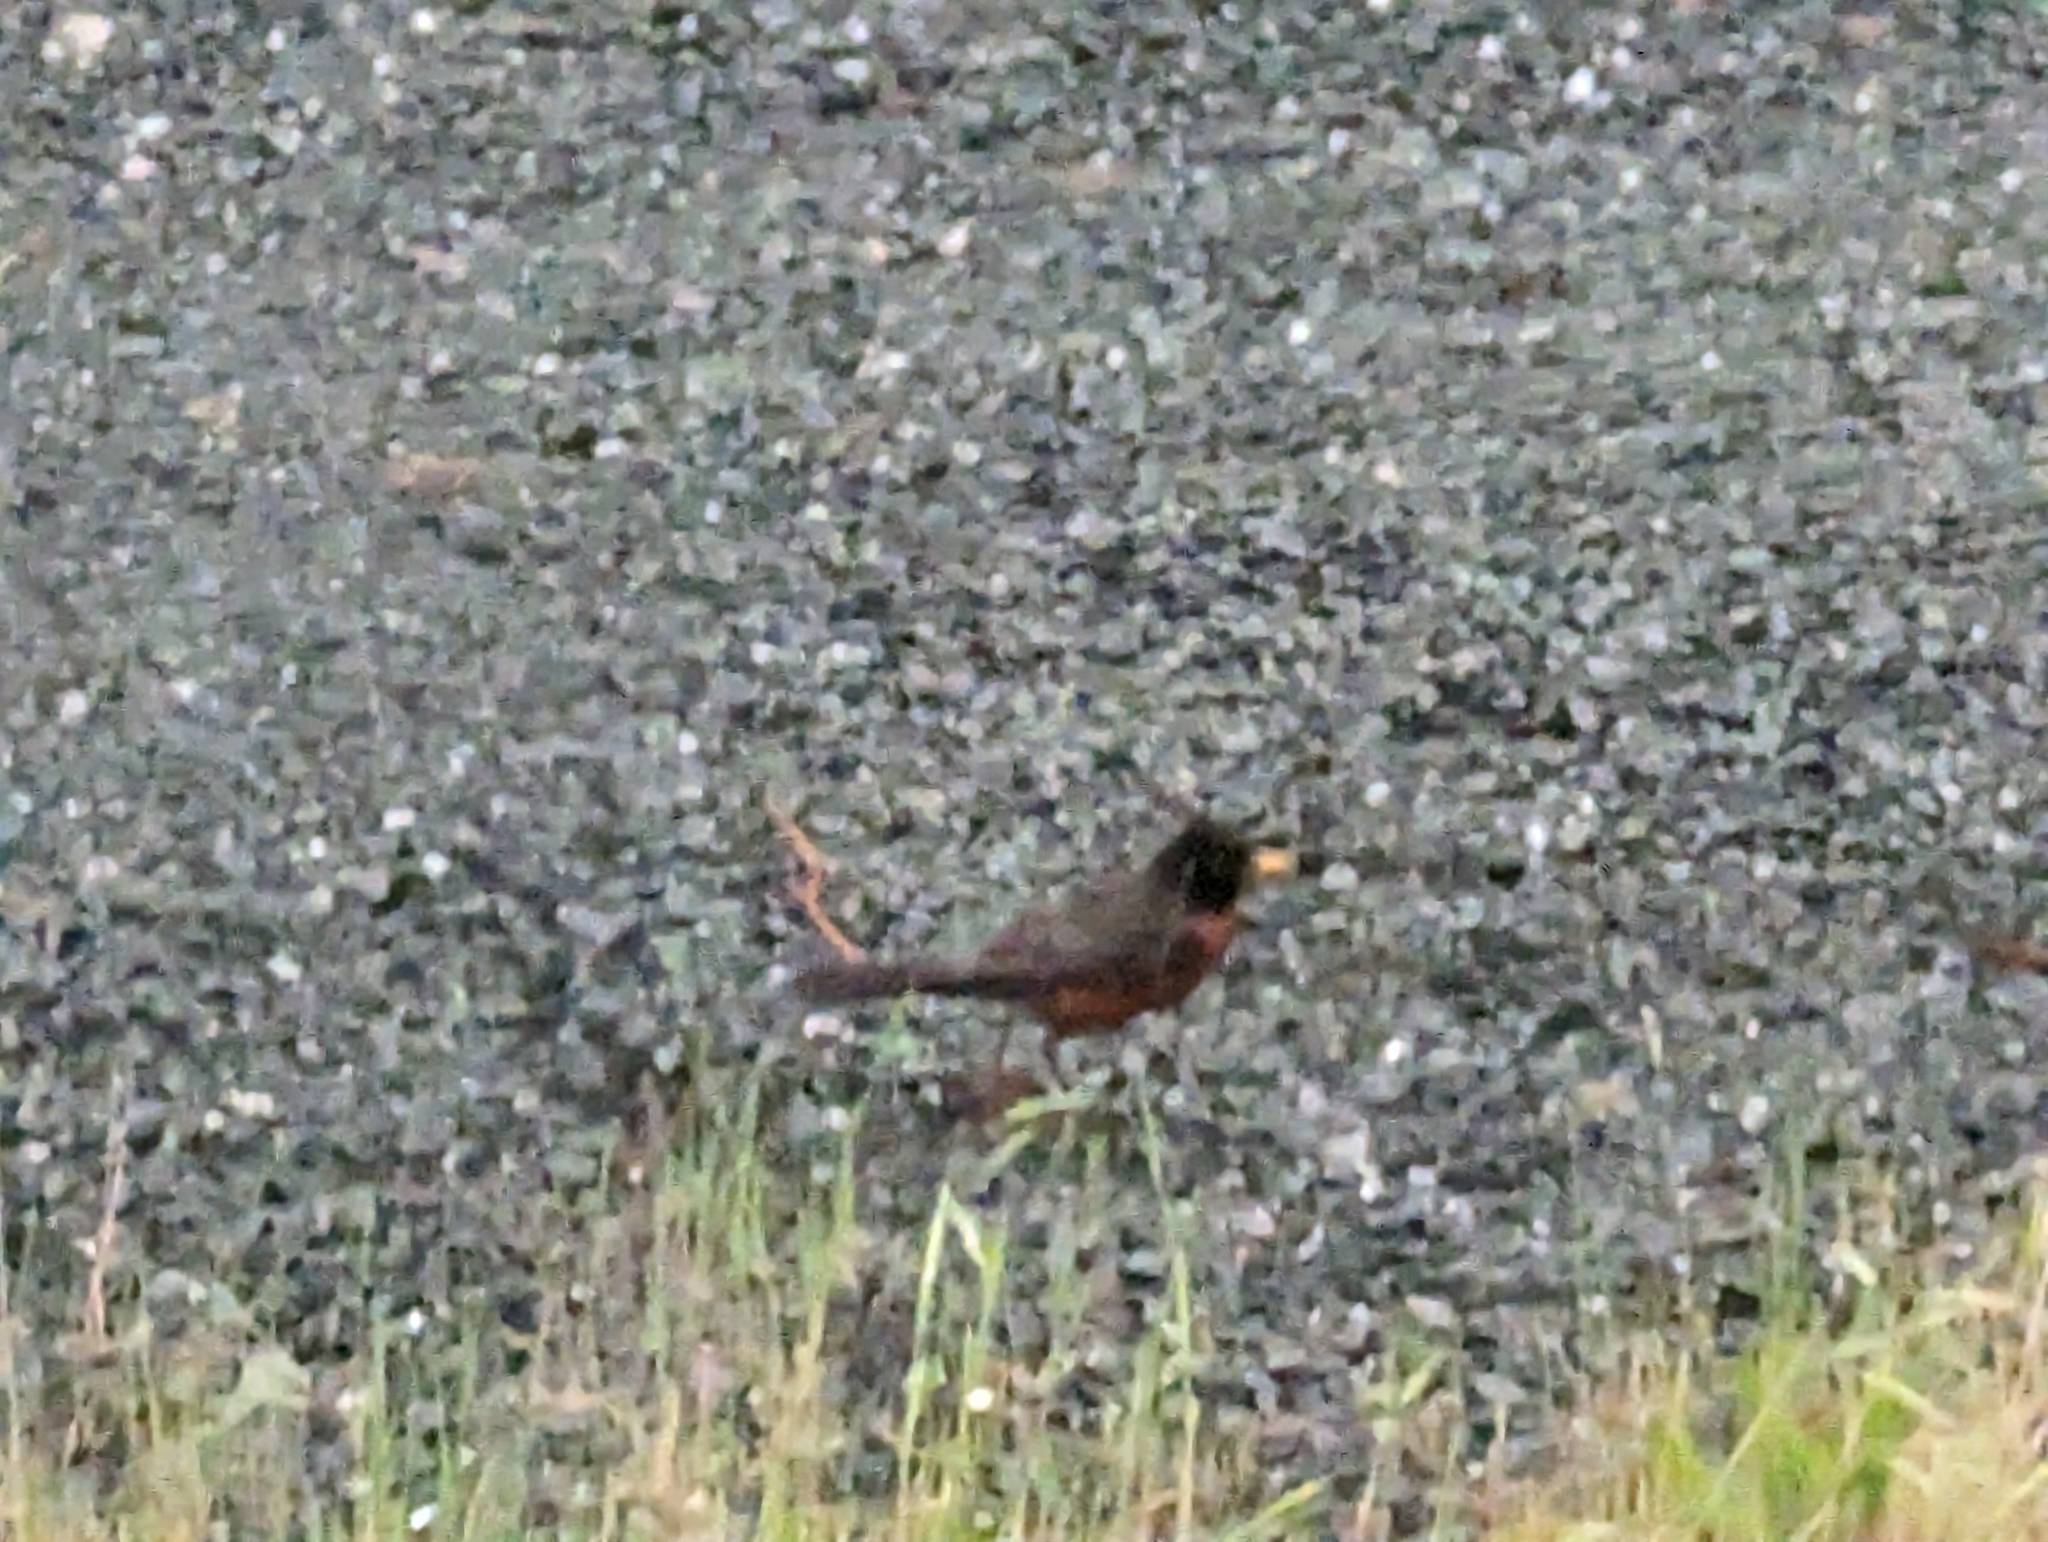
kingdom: Animalia
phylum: Chordata
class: Aves
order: Passeriformes
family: Turdidae
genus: Turdus
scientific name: Turdus migratorius
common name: American robin
